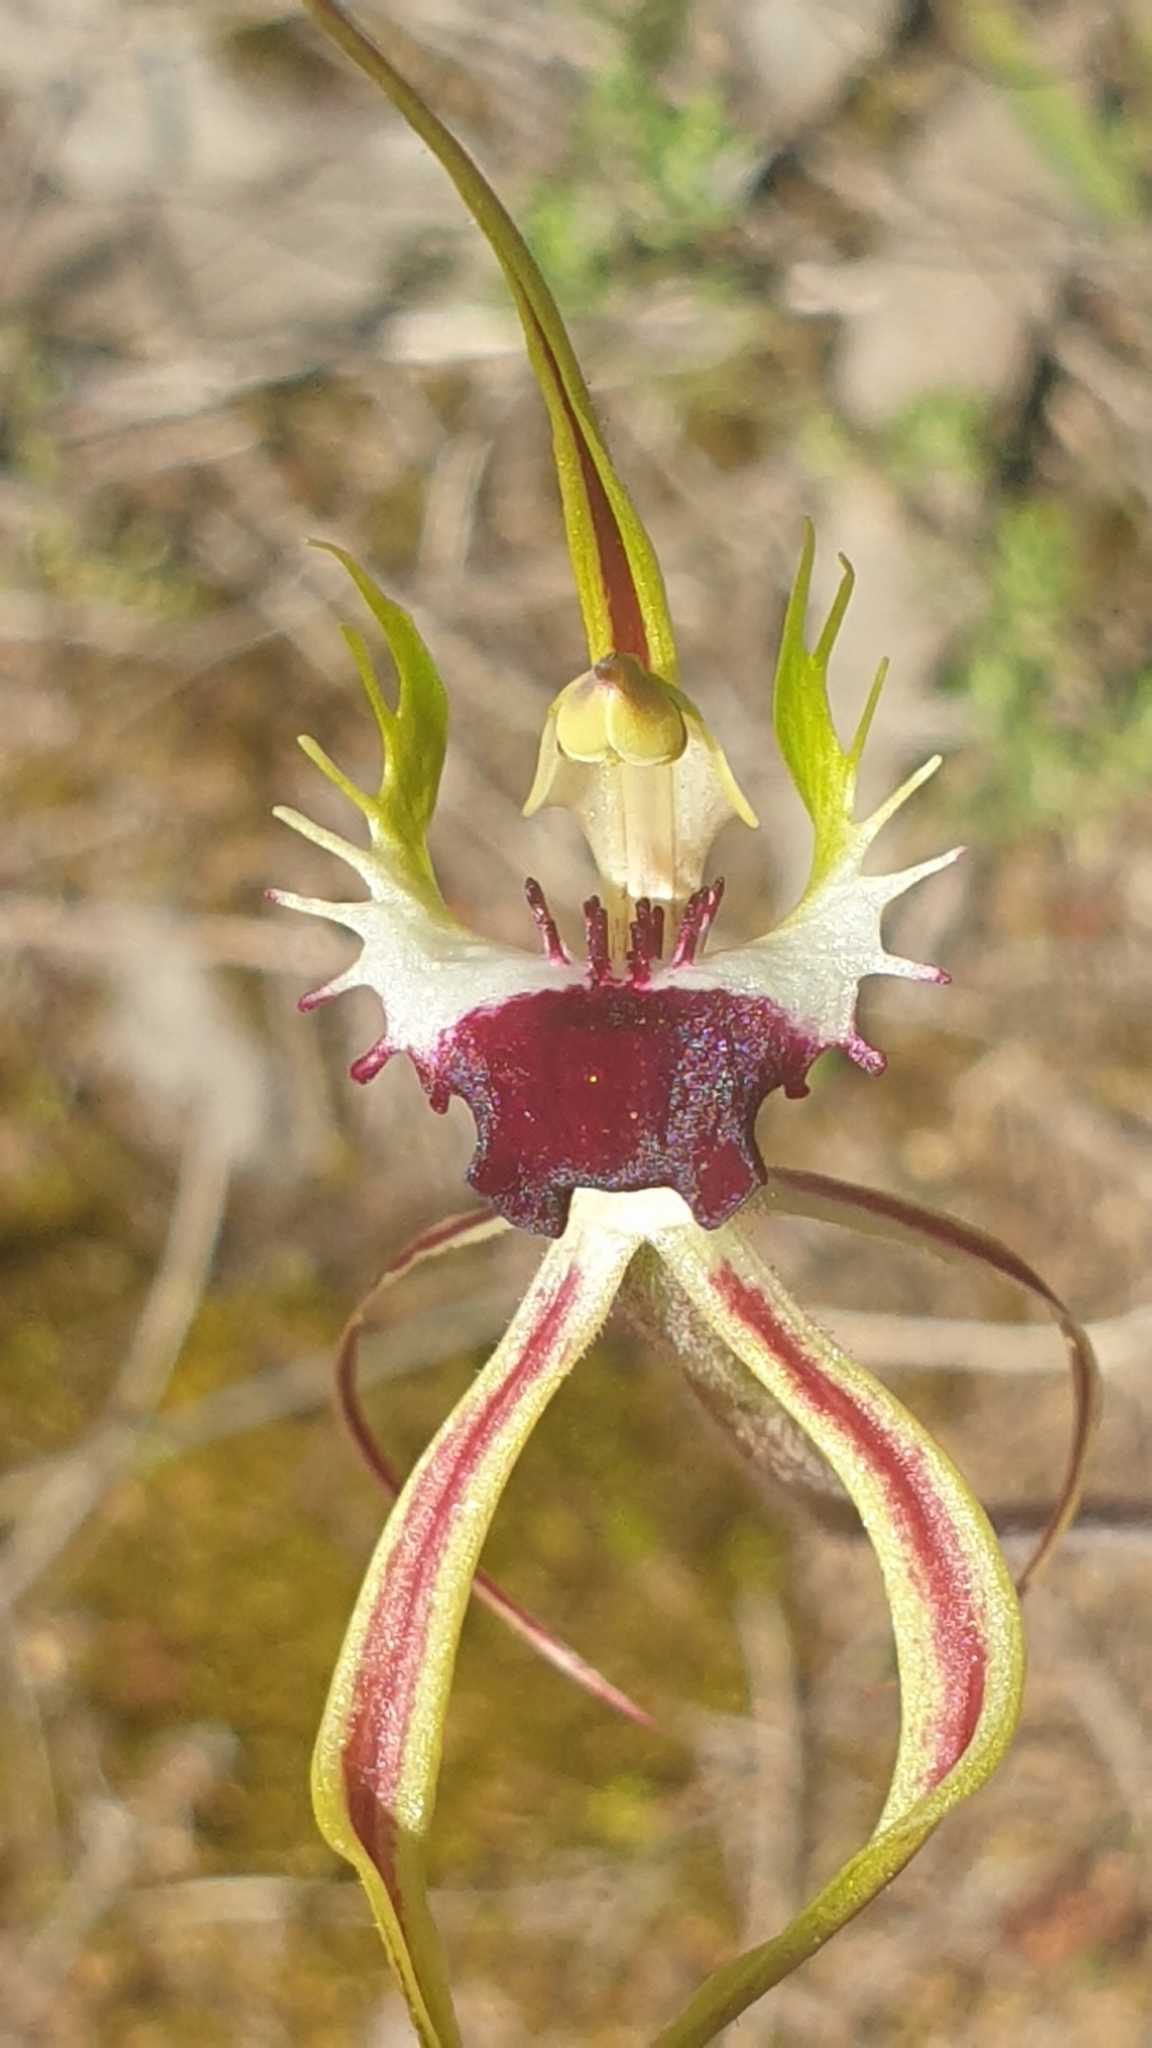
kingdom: Plantae
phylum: Tracheophyta
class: Liliopsida
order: Asparagales
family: Orchidaceae
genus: Caladenia
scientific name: Caladenia tentaculata
